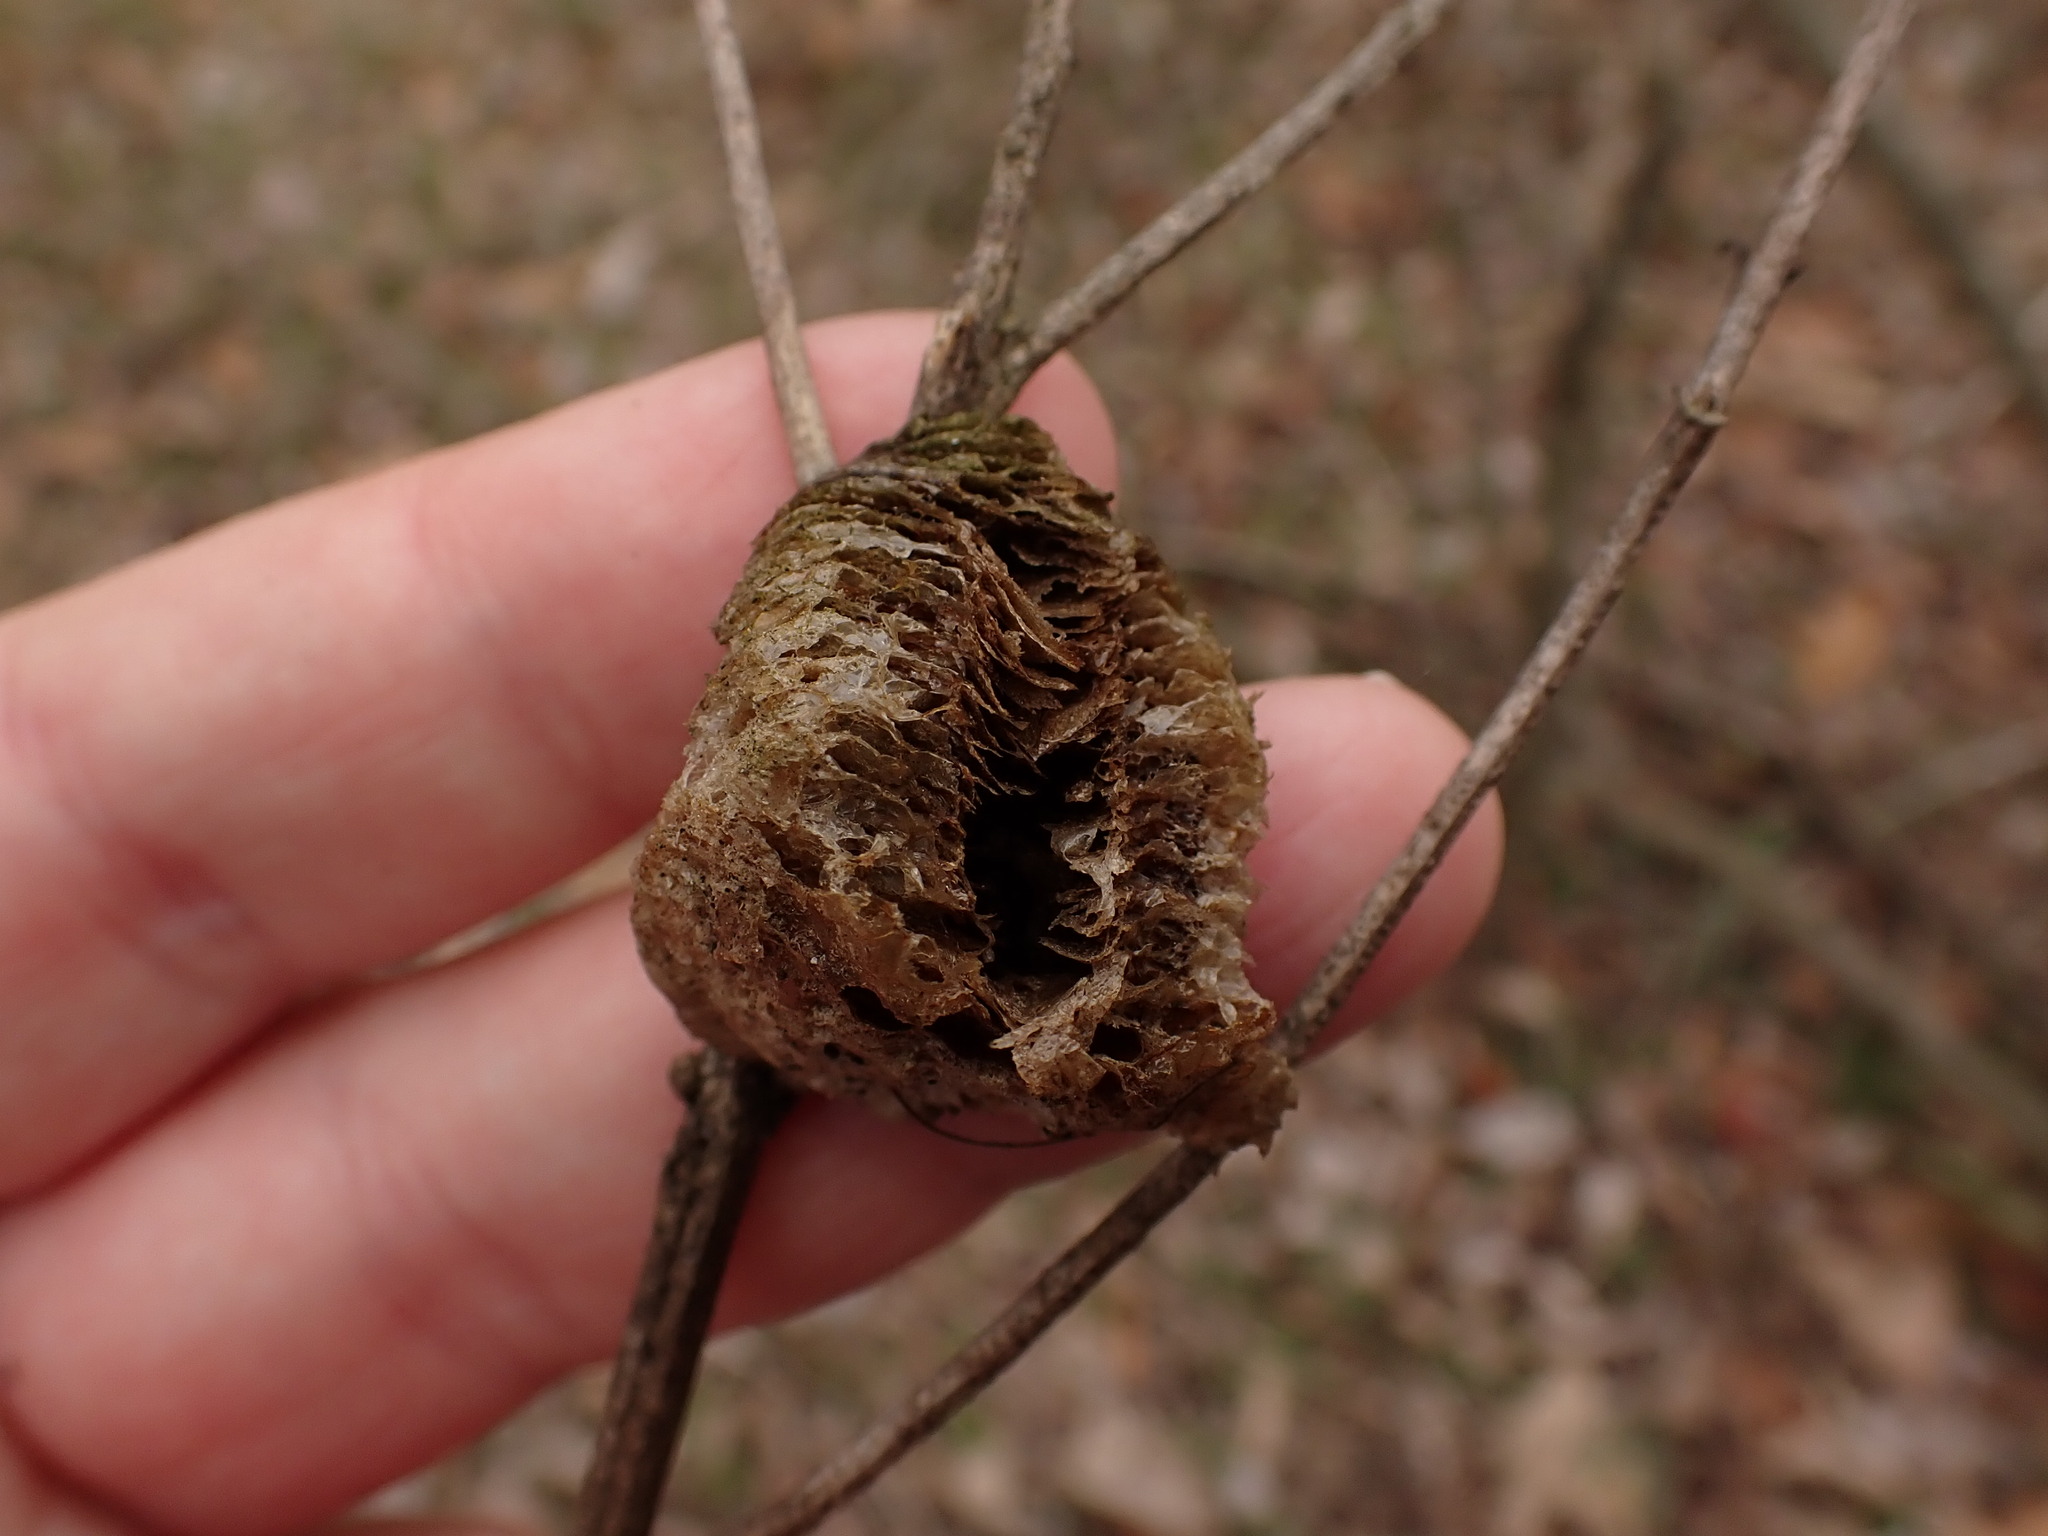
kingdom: Animalia
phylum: Arthropoda
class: Insecta
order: Mantodea
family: Mantidae
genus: Tenodera
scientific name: Tenodera sinensis
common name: Chinese mantis
